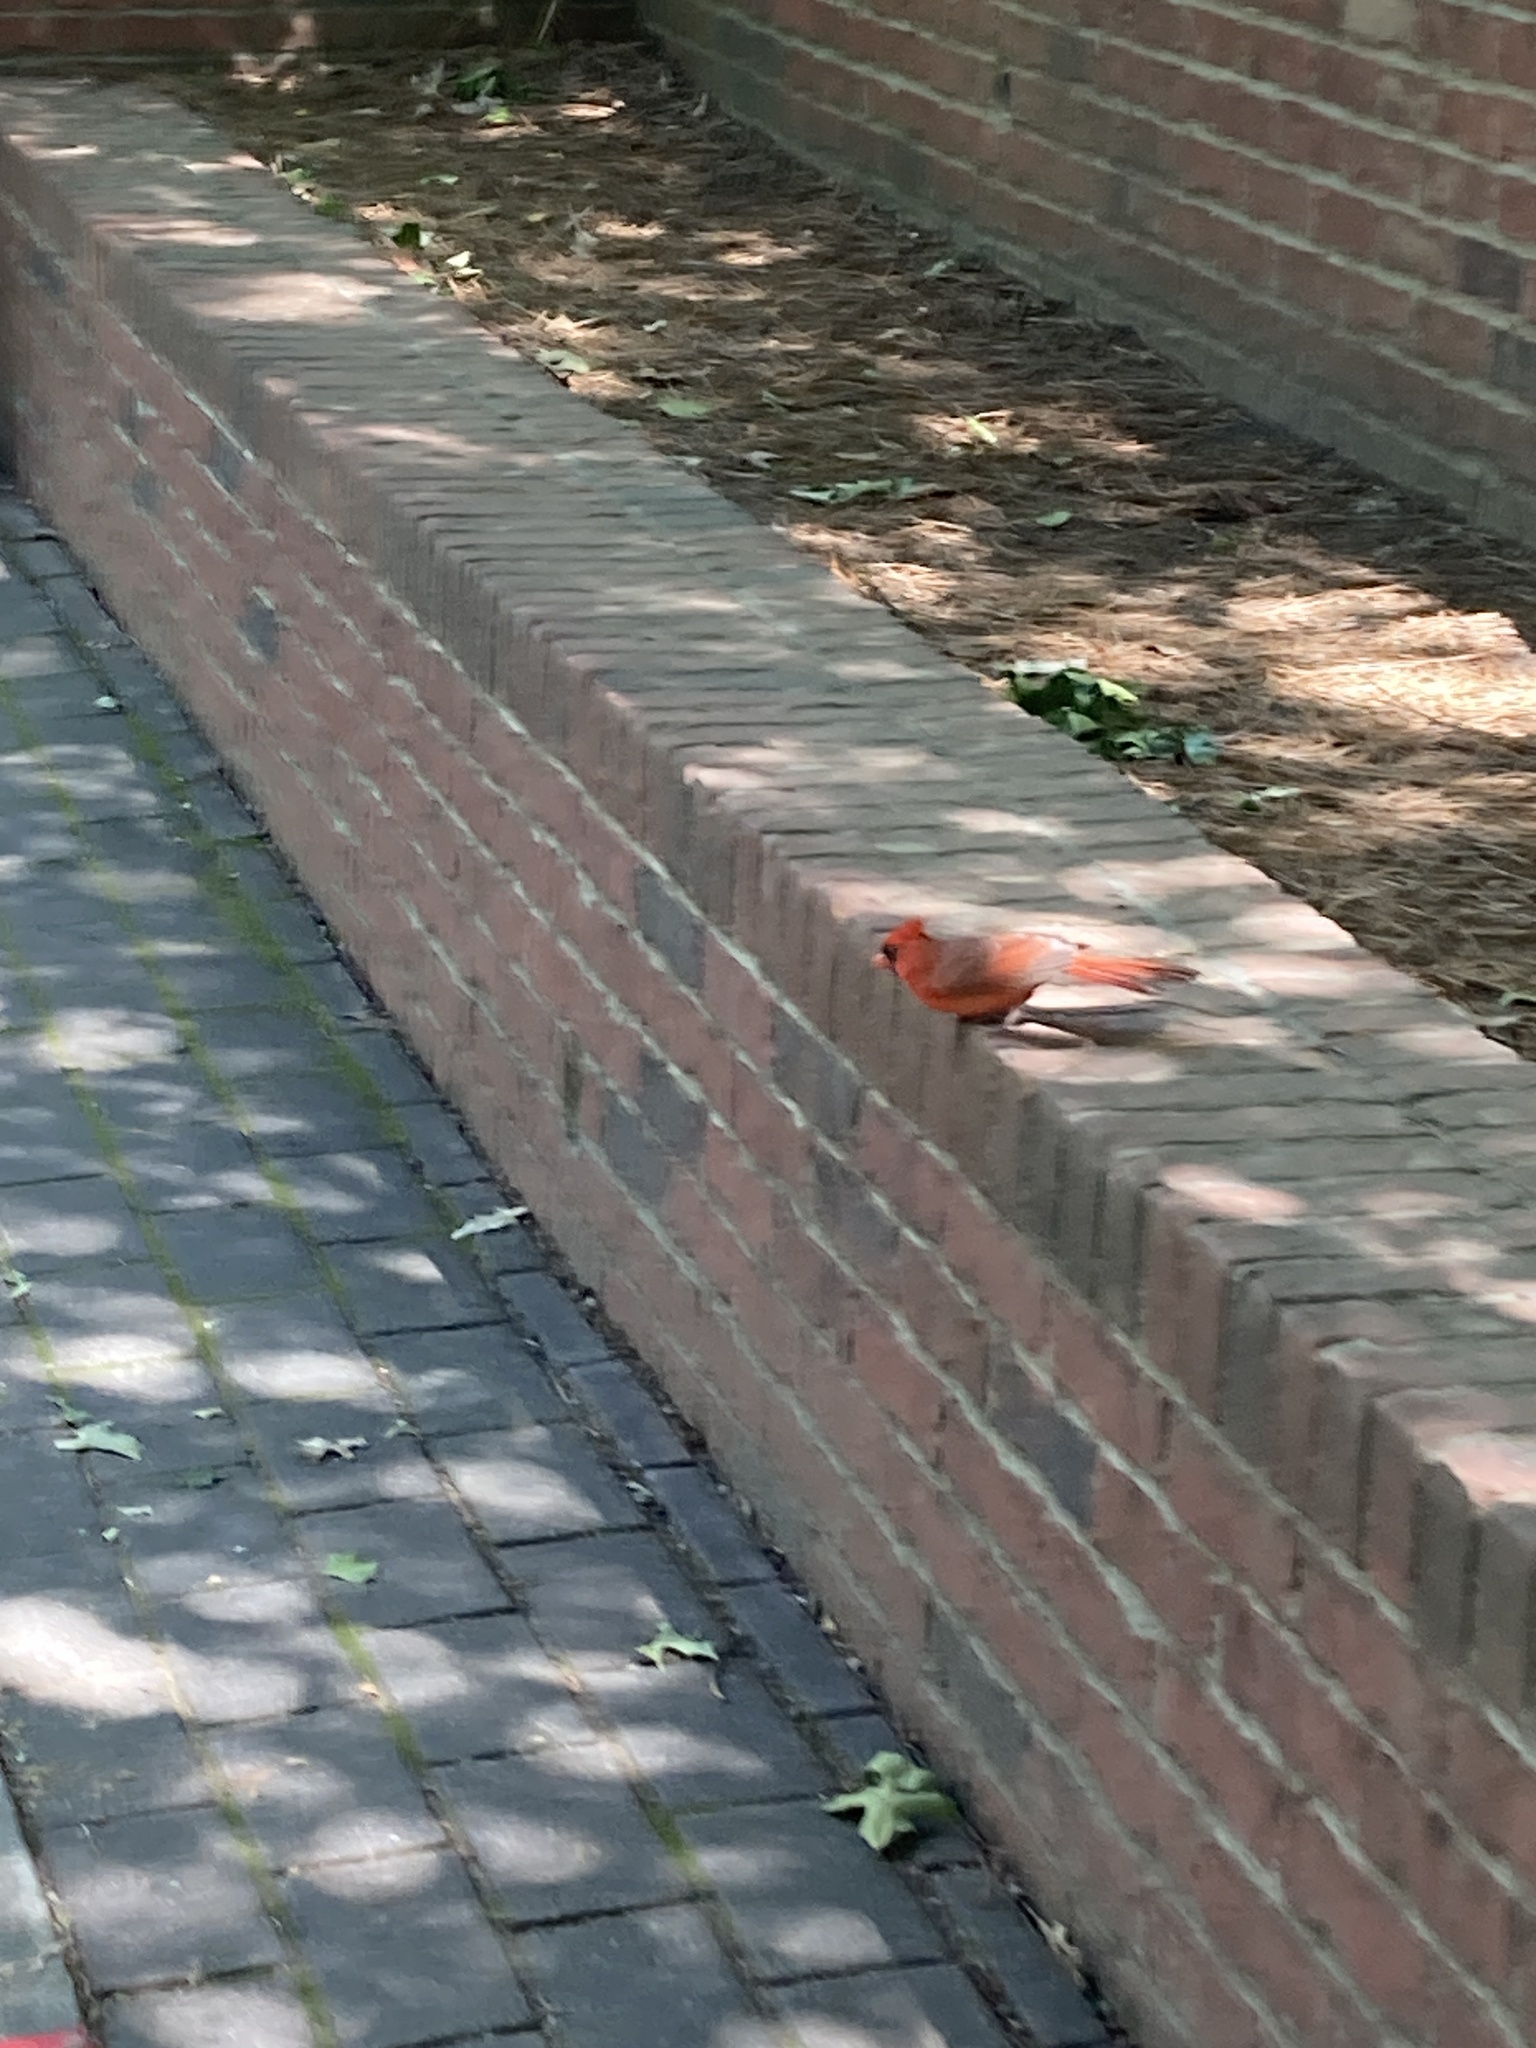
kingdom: Animalia
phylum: Chordata
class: Aves
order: Passeriformes
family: Cardinalidae
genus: Cardinalis
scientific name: Cardinalis cardinalis
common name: Northern cardinal
